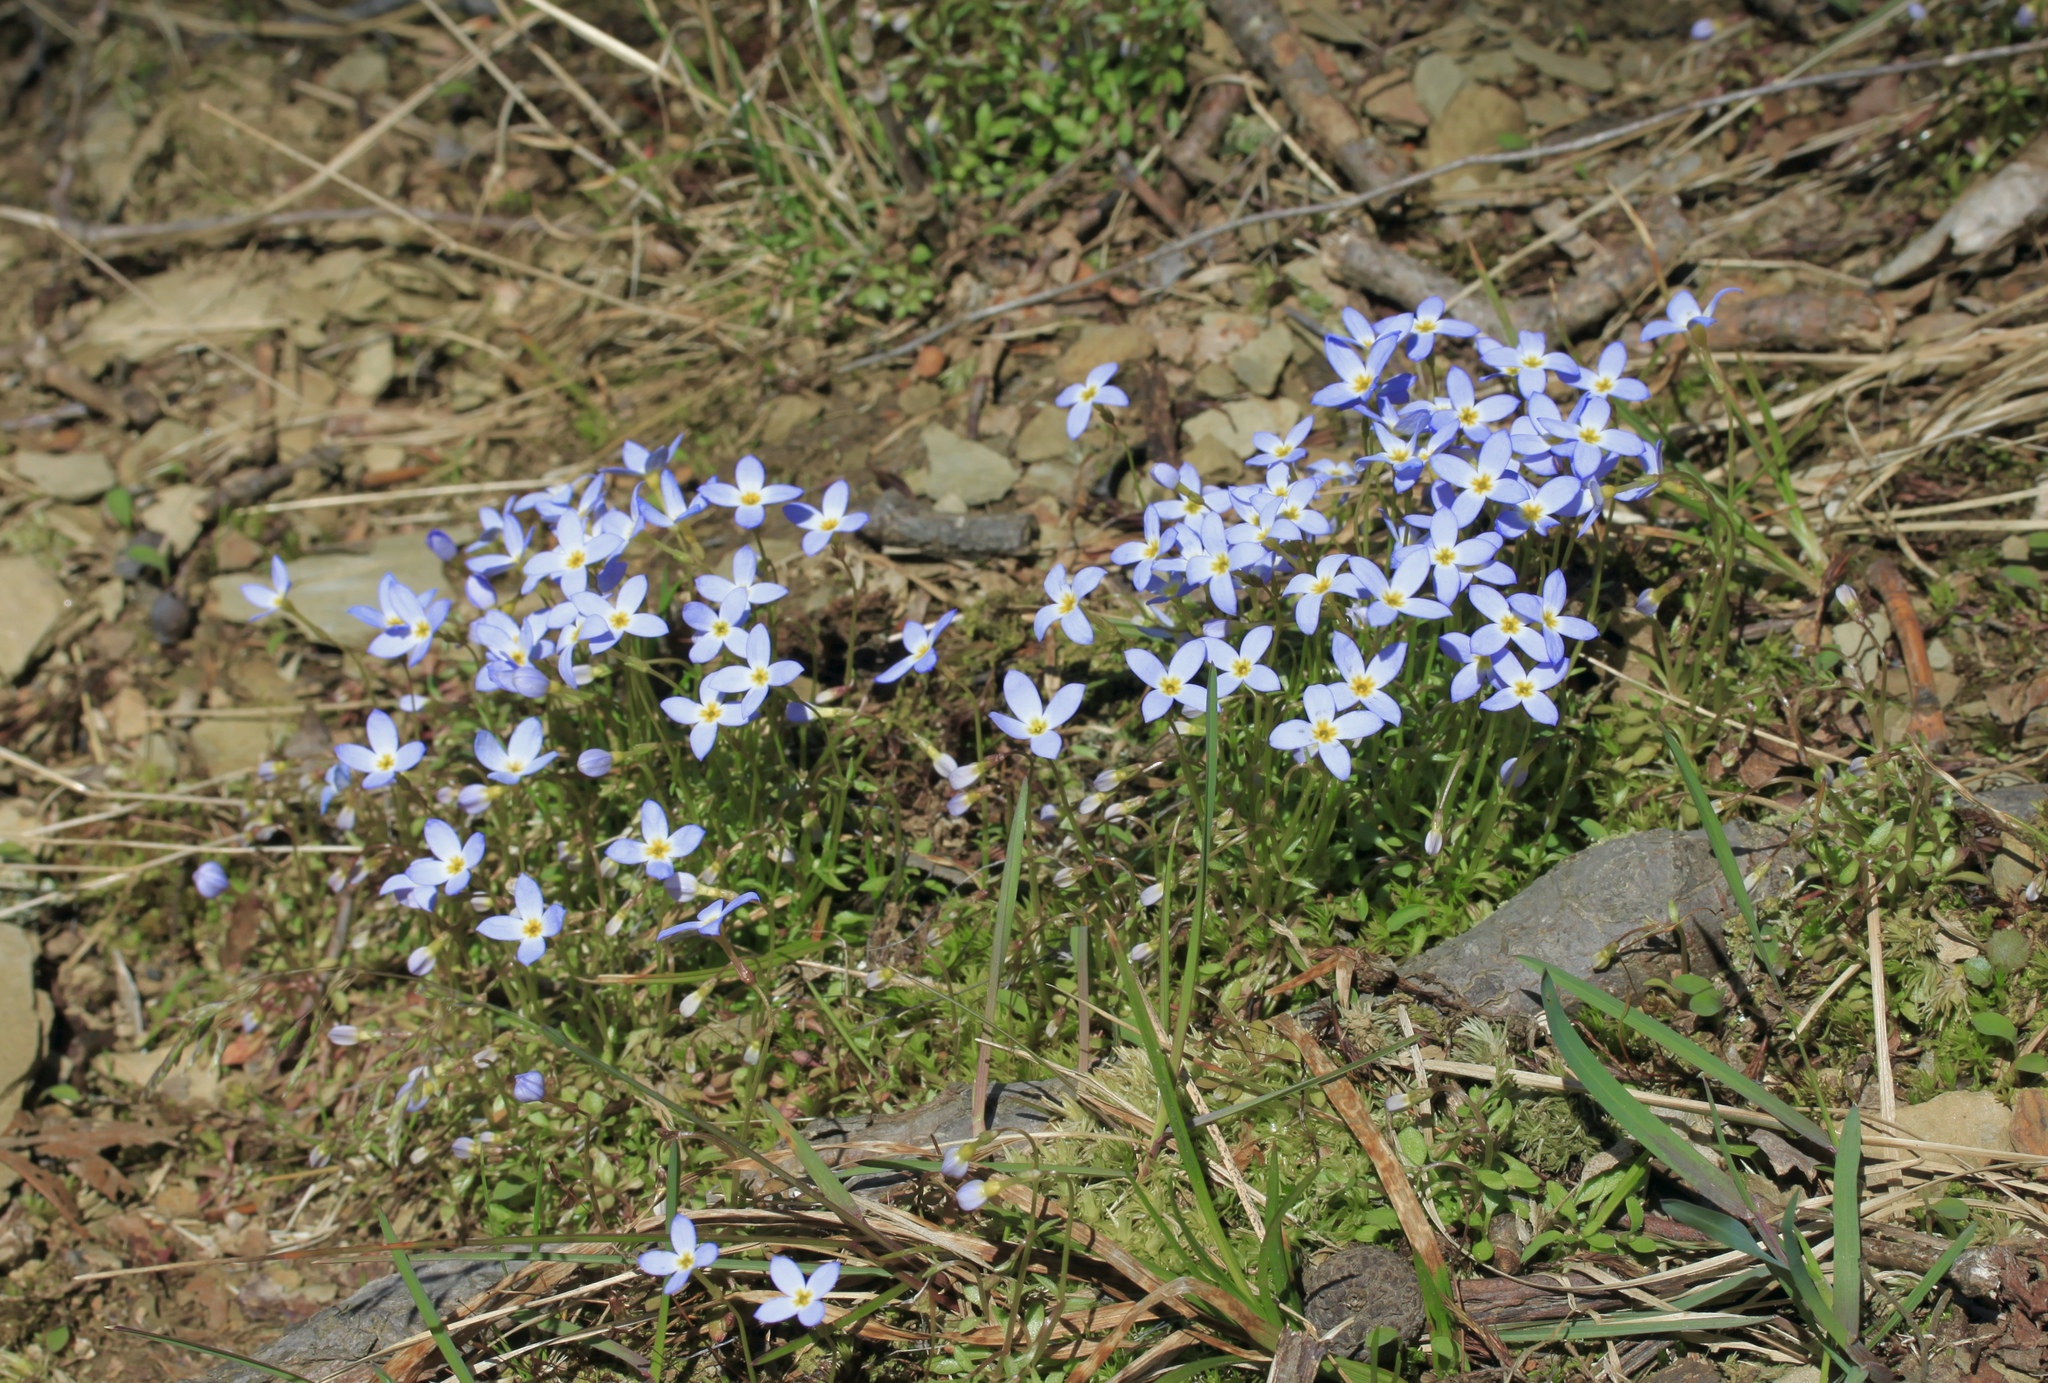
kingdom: Plantae
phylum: Tracheophyta
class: Magnoliopsida
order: Gentianales
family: Rubiaceae
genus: Houstonia
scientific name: Houstonia caerulea
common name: Bluets
